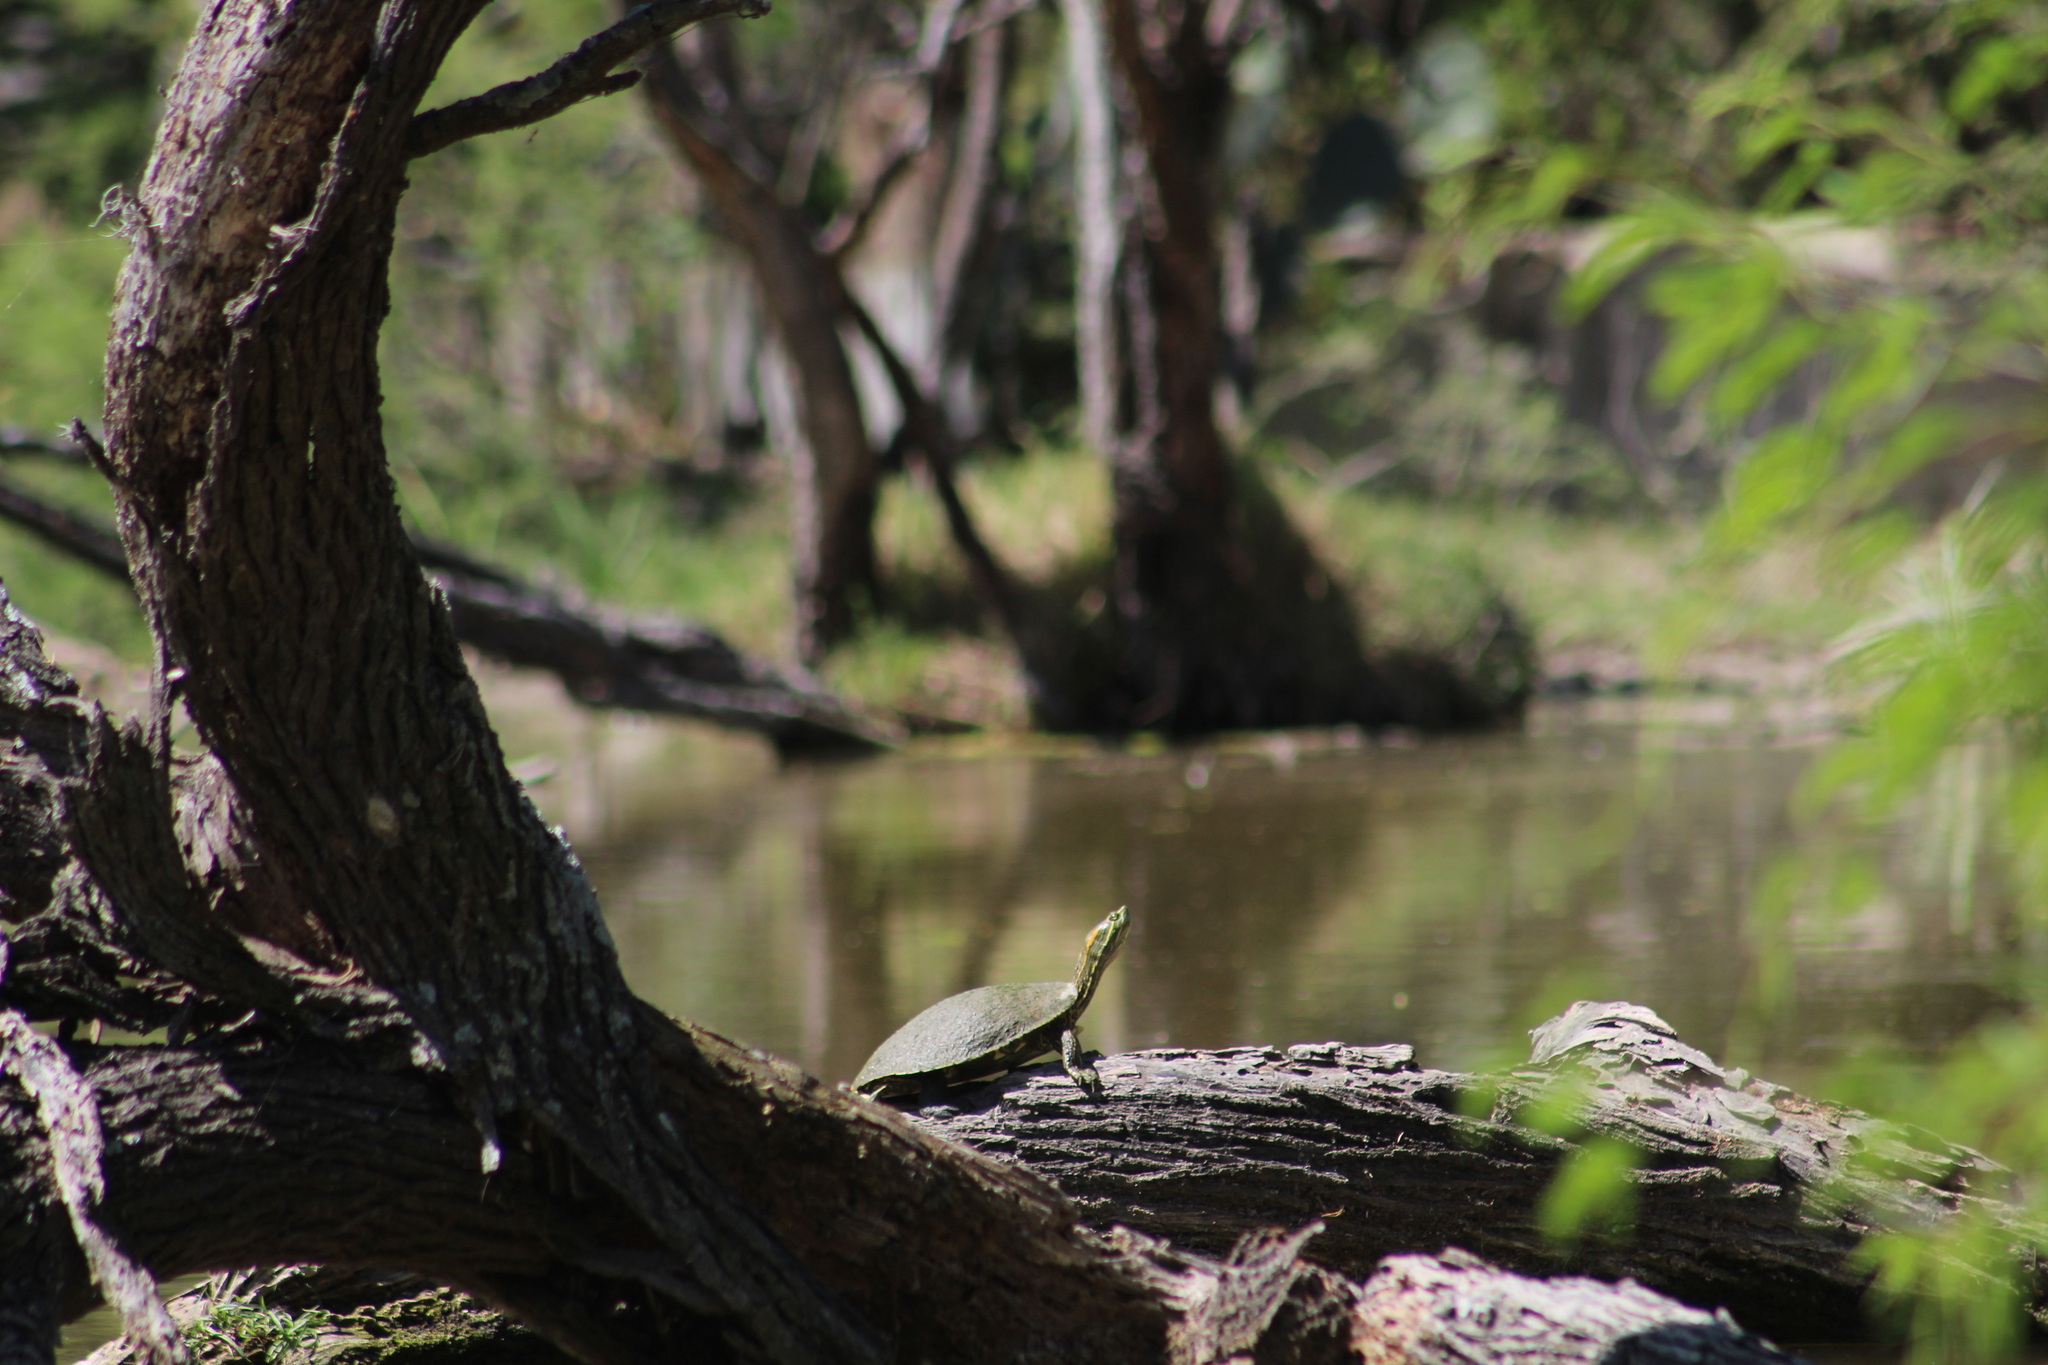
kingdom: Animalia
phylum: Chordata
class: Testudines
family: Emydidae
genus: Trachemys
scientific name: Trachemys venusta
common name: Mesoamerican slider
